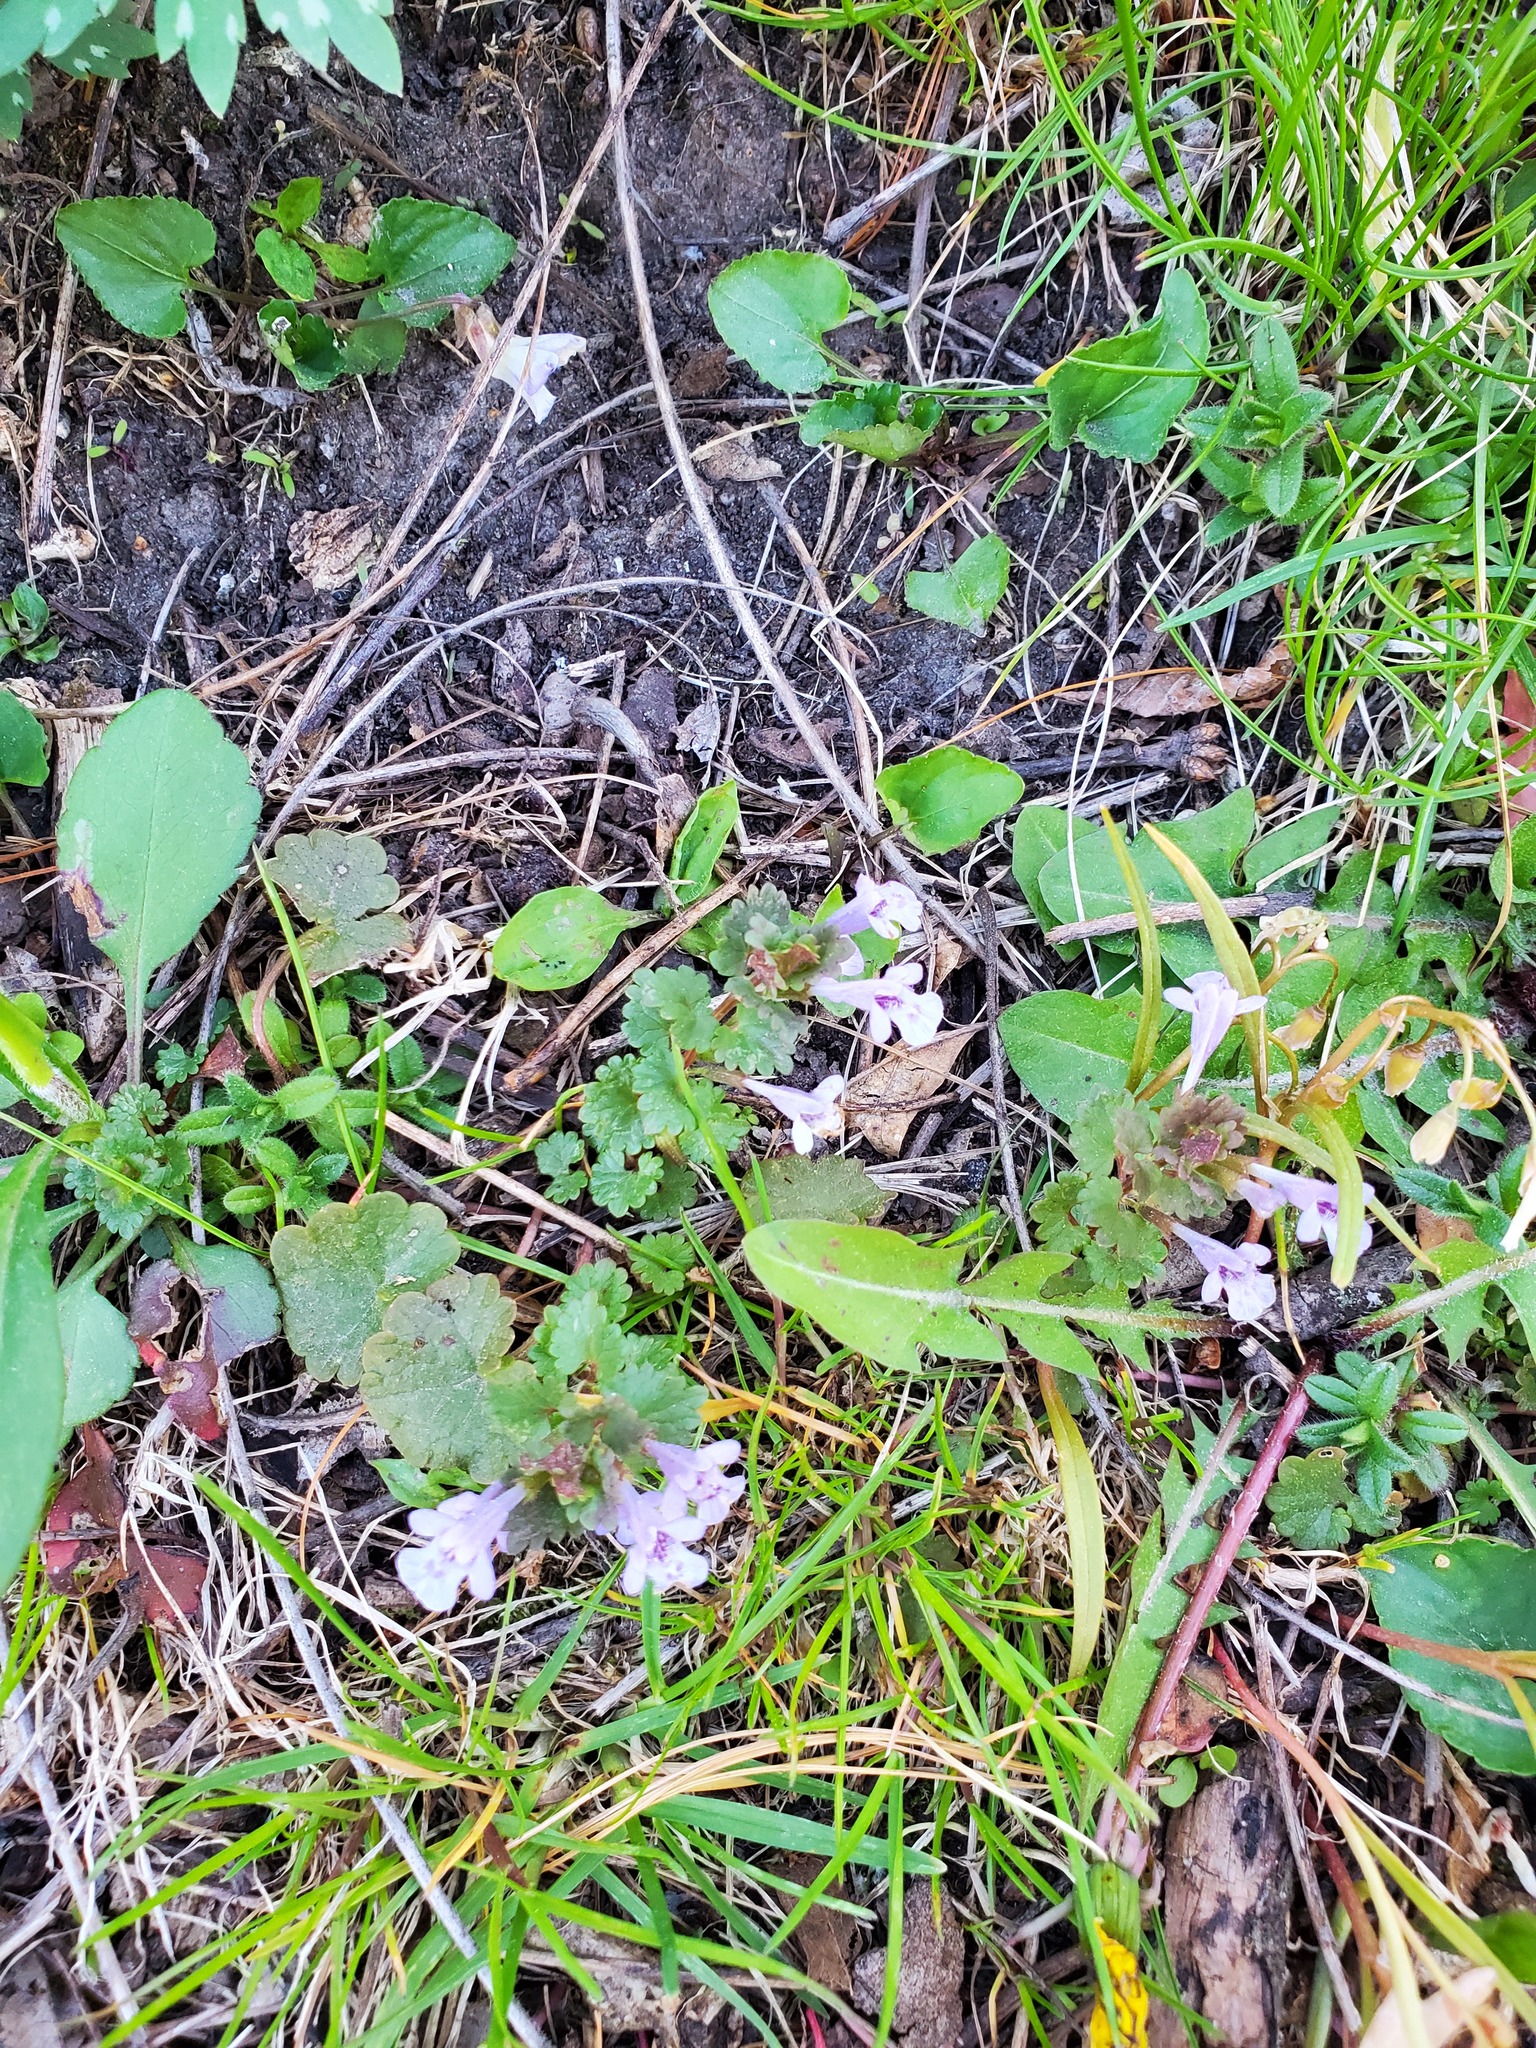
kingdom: Plantae
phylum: Tracheophyta
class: Magnoliopsida
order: Lamiales
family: Lamiaceae
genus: Glechoma
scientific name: Glechoma hederacea
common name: Ground ivy
